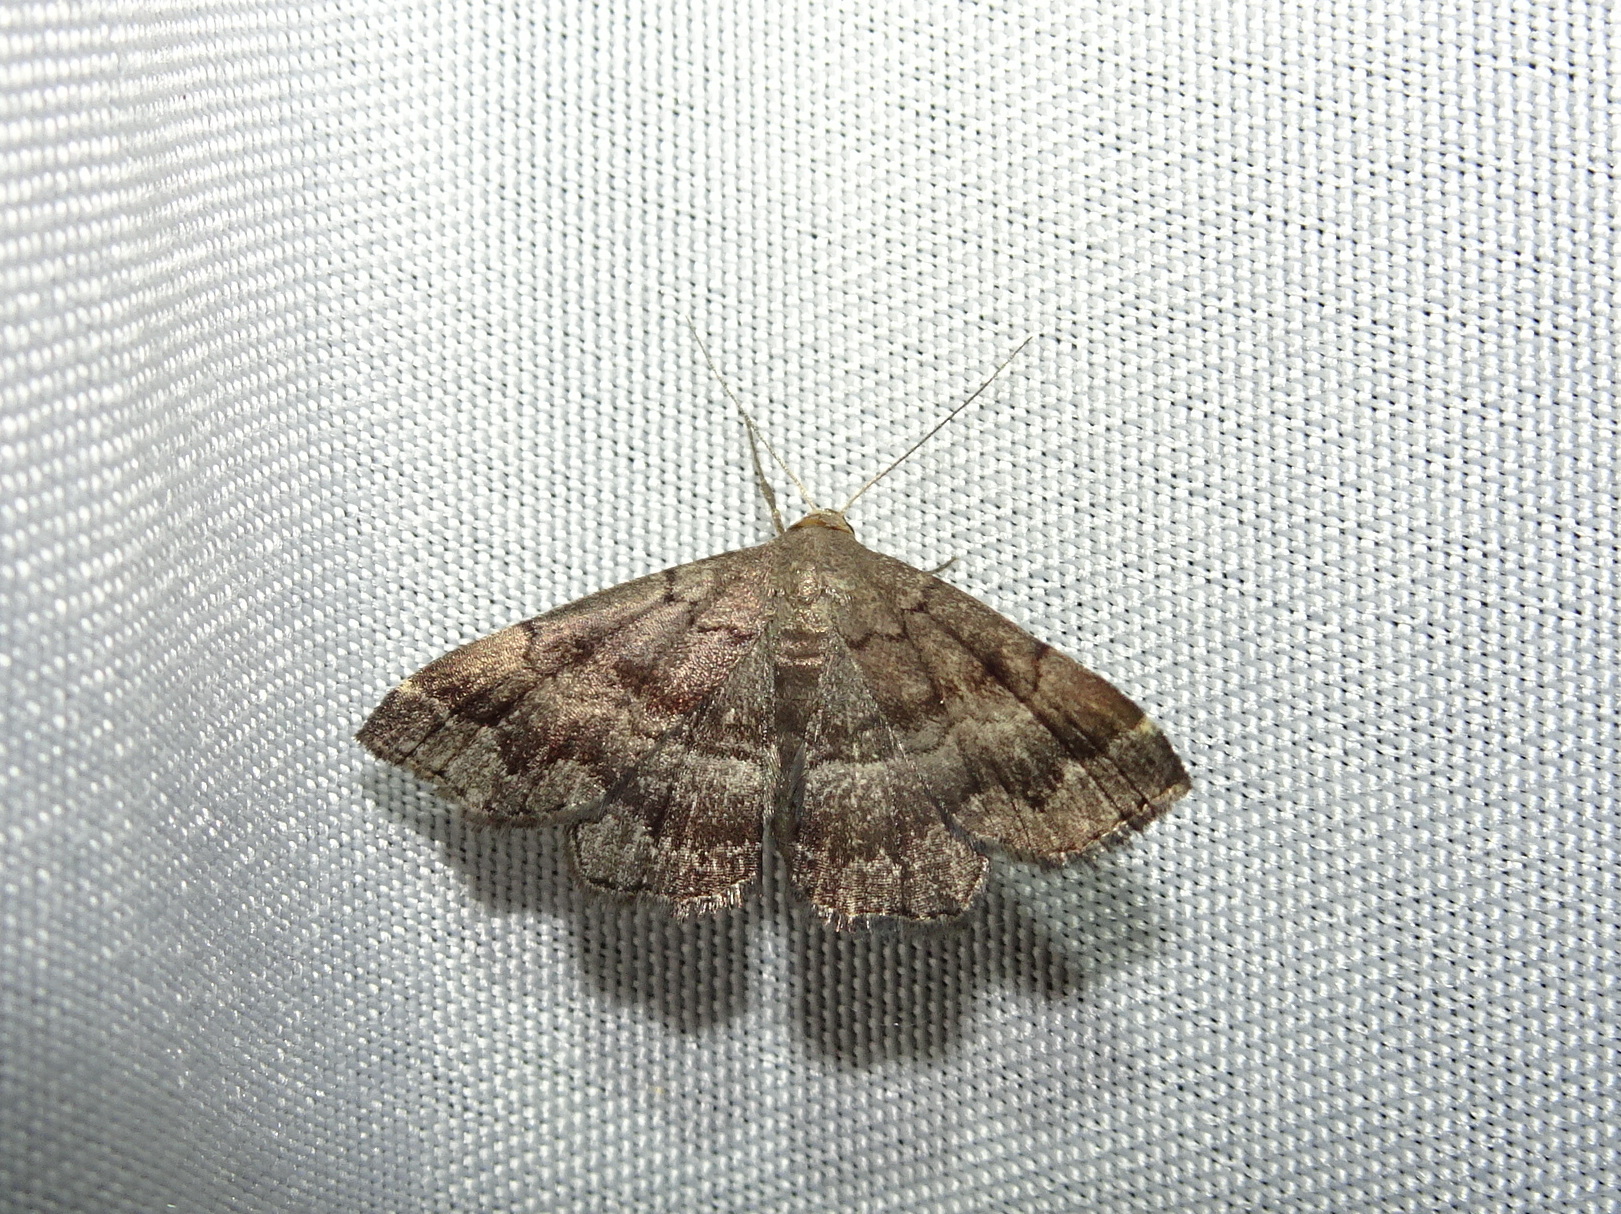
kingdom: Animalia
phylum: Arthropoda
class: Insecta
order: Lepidoptera
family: Erebidae
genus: Phalaenostola
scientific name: Phalaenostola larentioides
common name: Black-banded owlet
